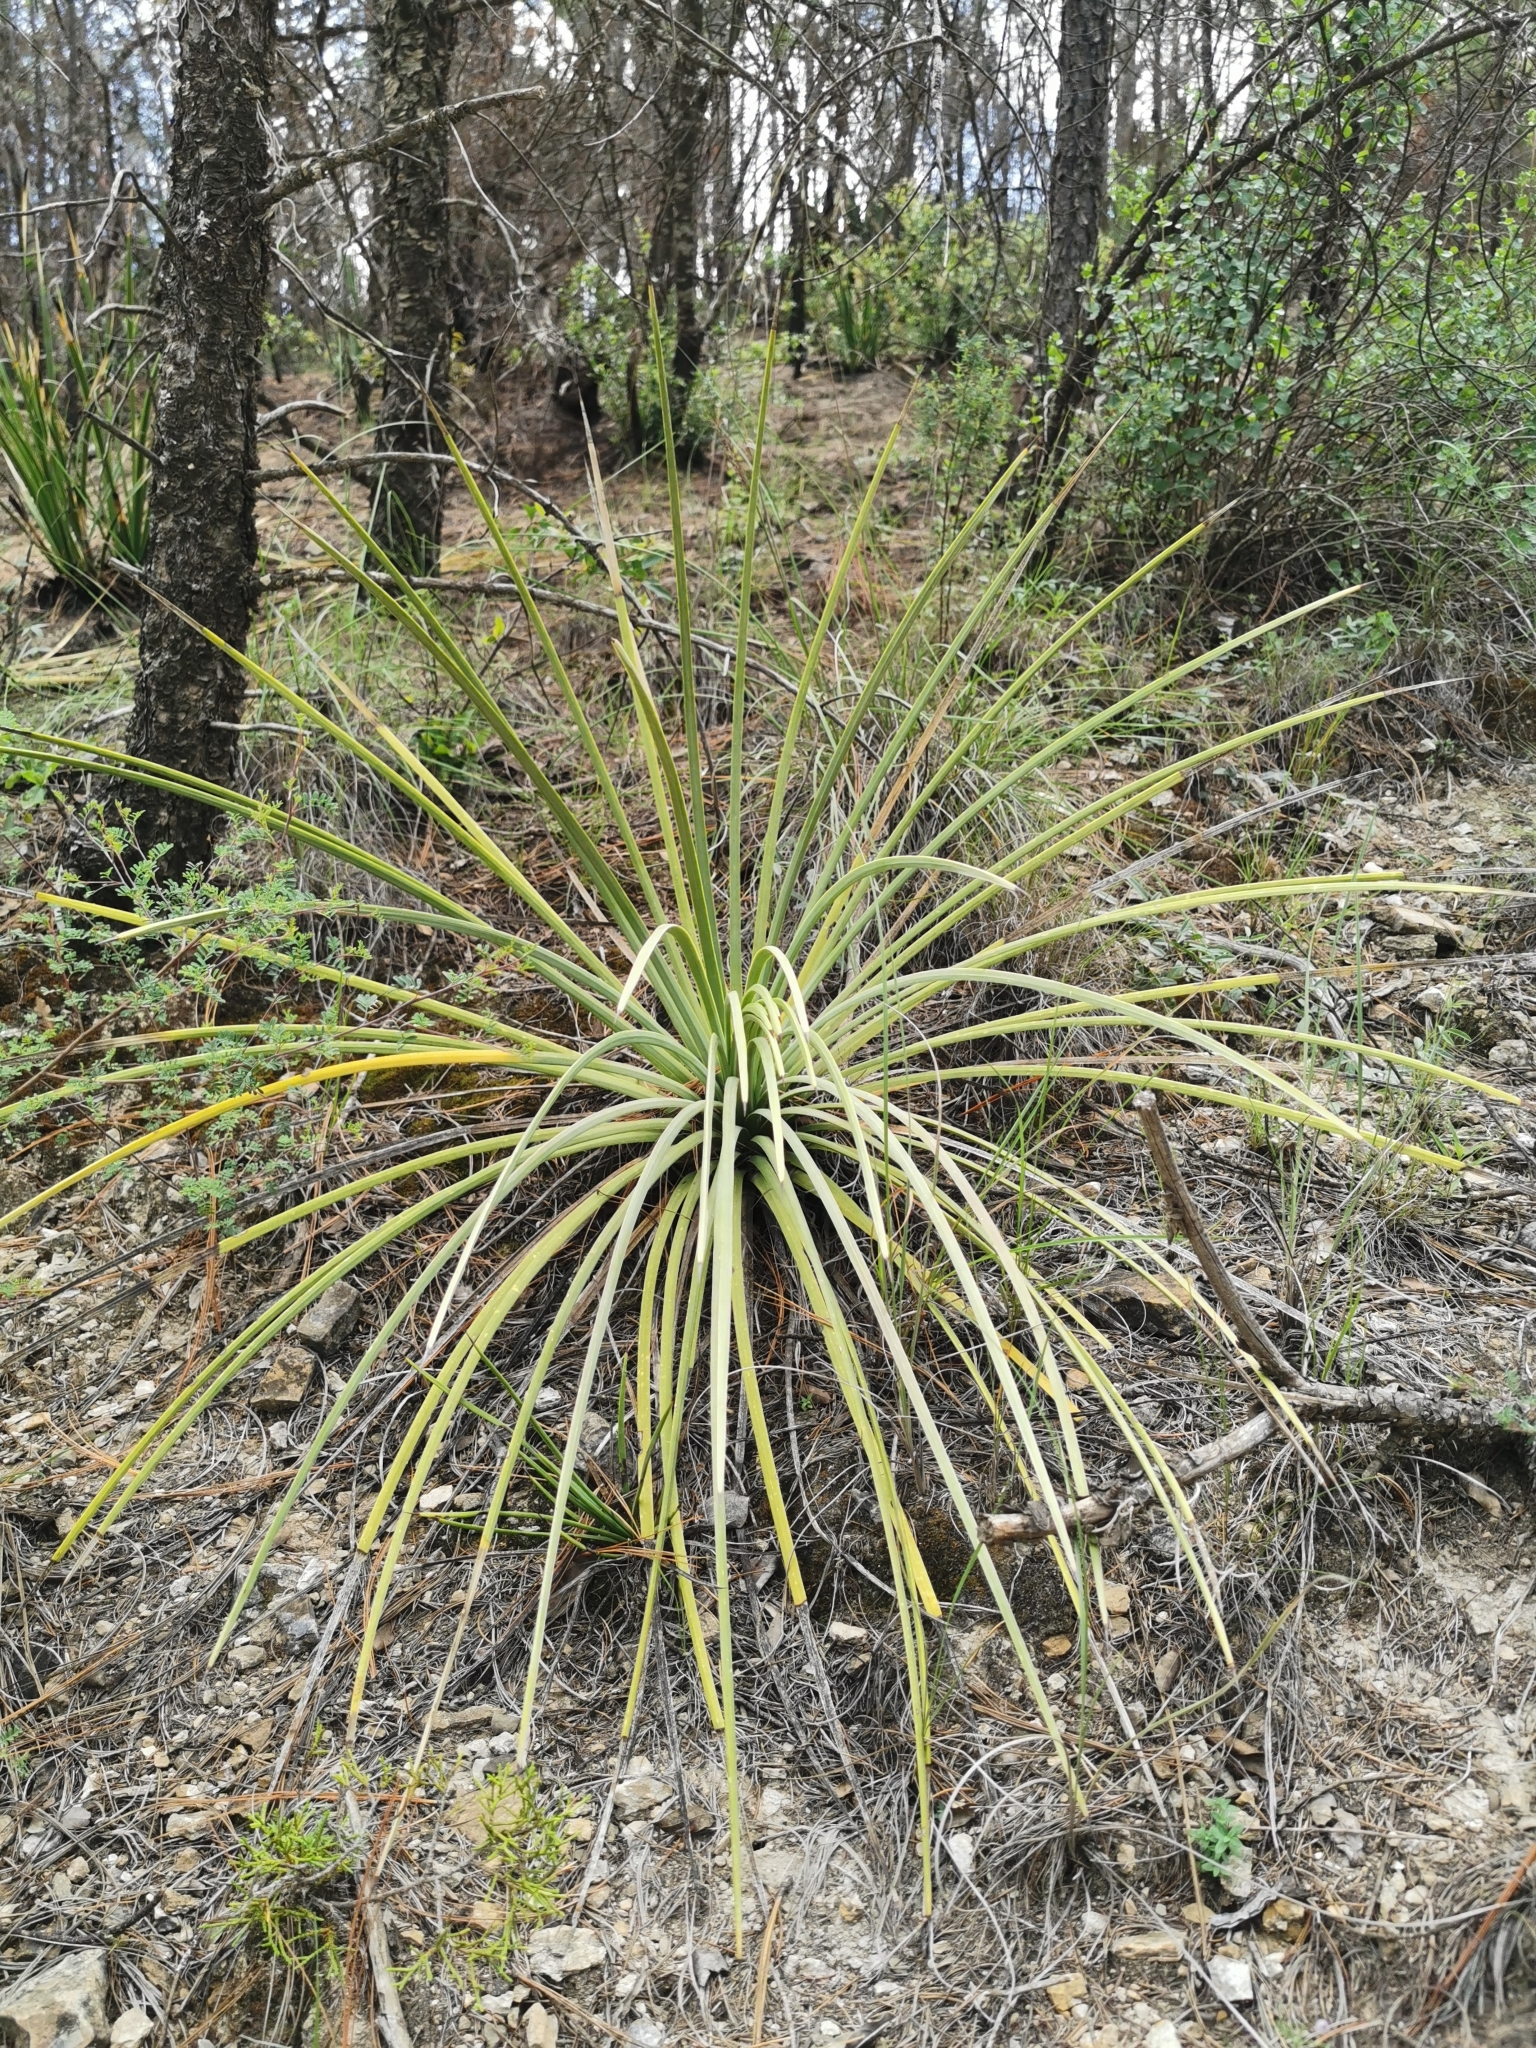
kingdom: Plantae
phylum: Tracheophyta
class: Liliopsida
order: Asparagales
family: Asparagaceae
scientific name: Asparagaceae
